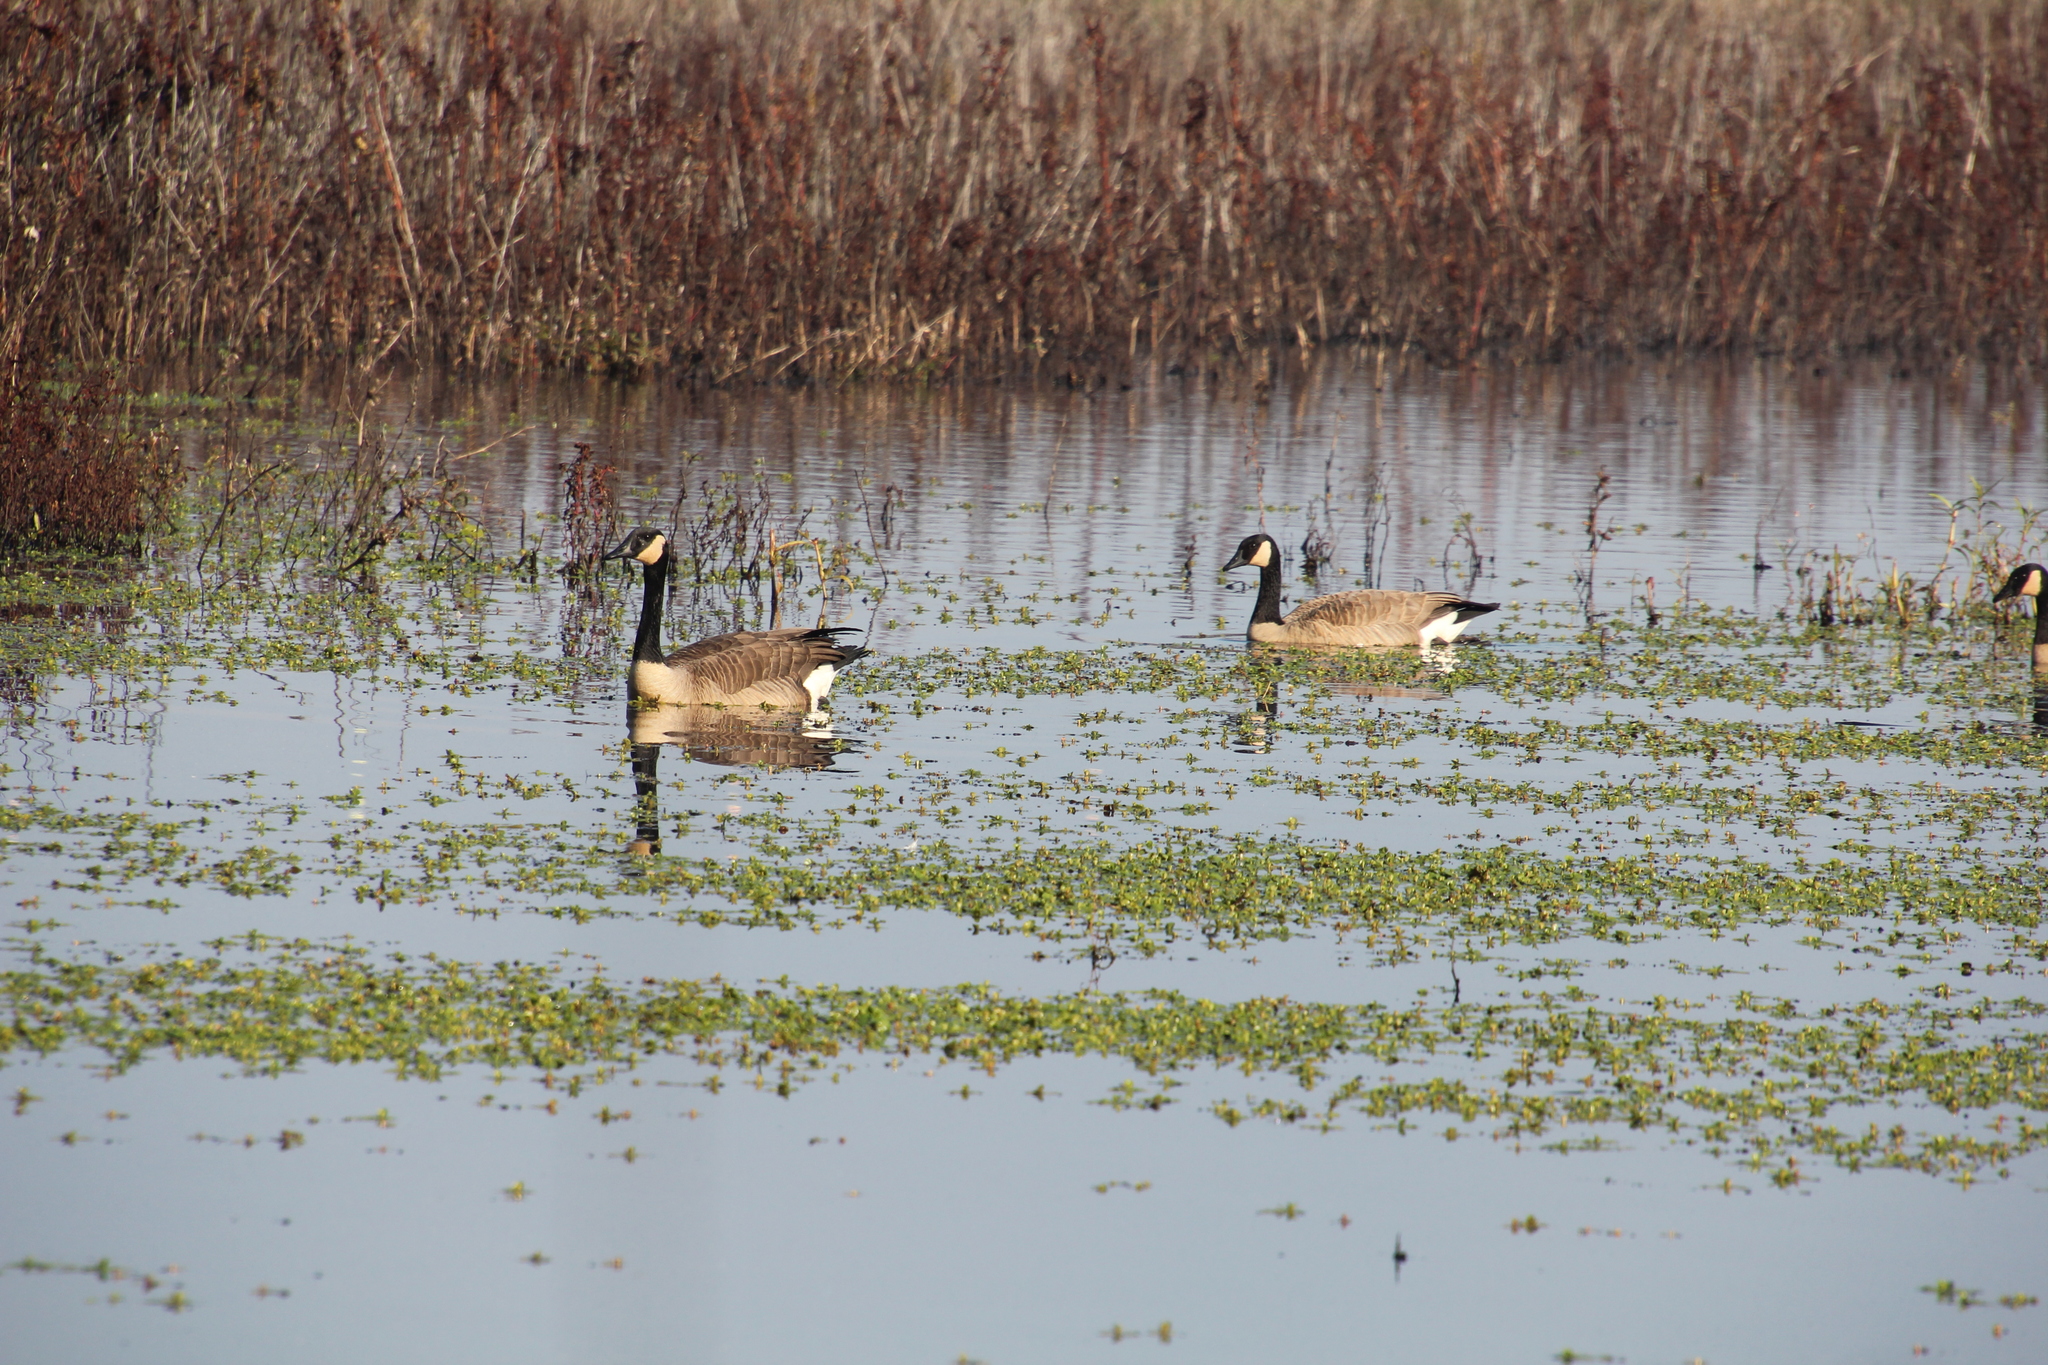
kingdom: Animalia
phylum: Chordata
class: Aves
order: Anseriformes
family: Anatidae
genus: Branta
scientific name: Branta canadensis
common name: Canada goose
